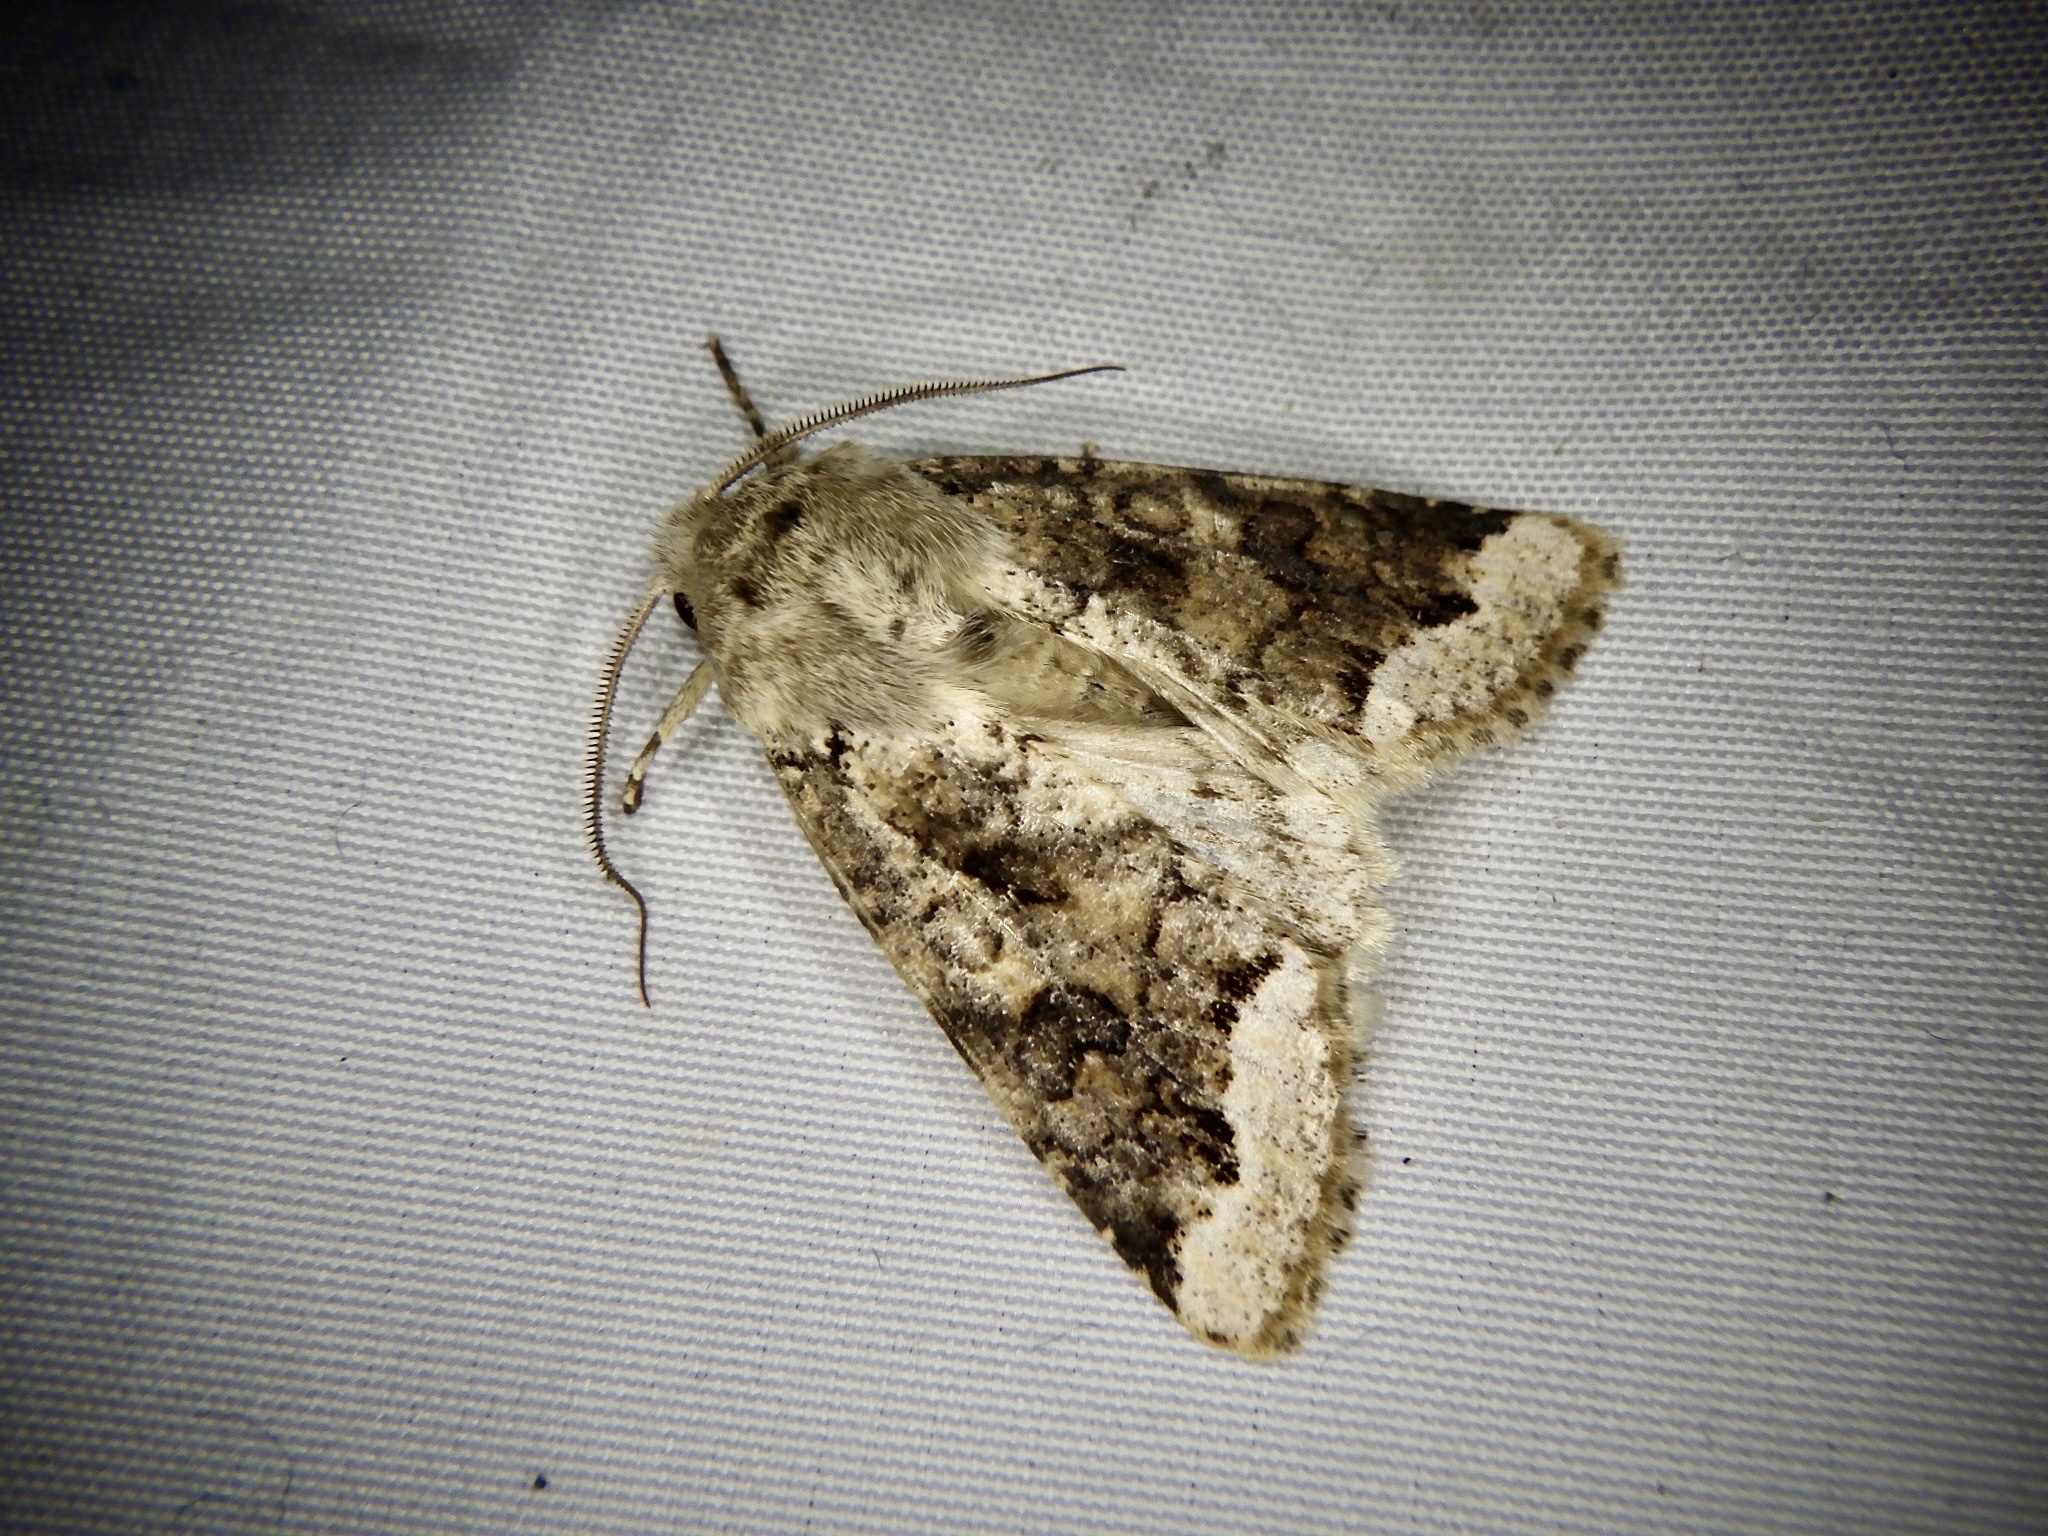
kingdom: Animalia
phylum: Arthropoda
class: Insecta
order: Lepidoptera
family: Noctuidae
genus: Orthosia
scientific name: Orthosia limbata
